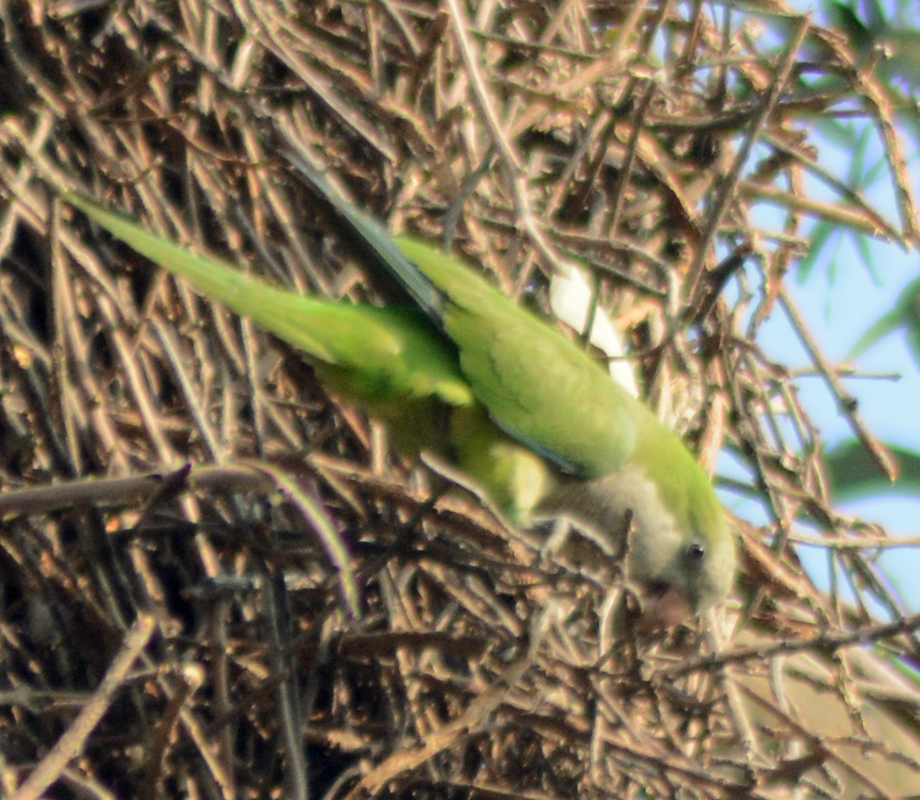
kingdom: Animalia
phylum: Chordata
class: Aves
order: Psittaciformes
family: Psittacidae
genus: Myiopsitta
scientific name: Myiopsitta monachus
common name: Monk parakeet
